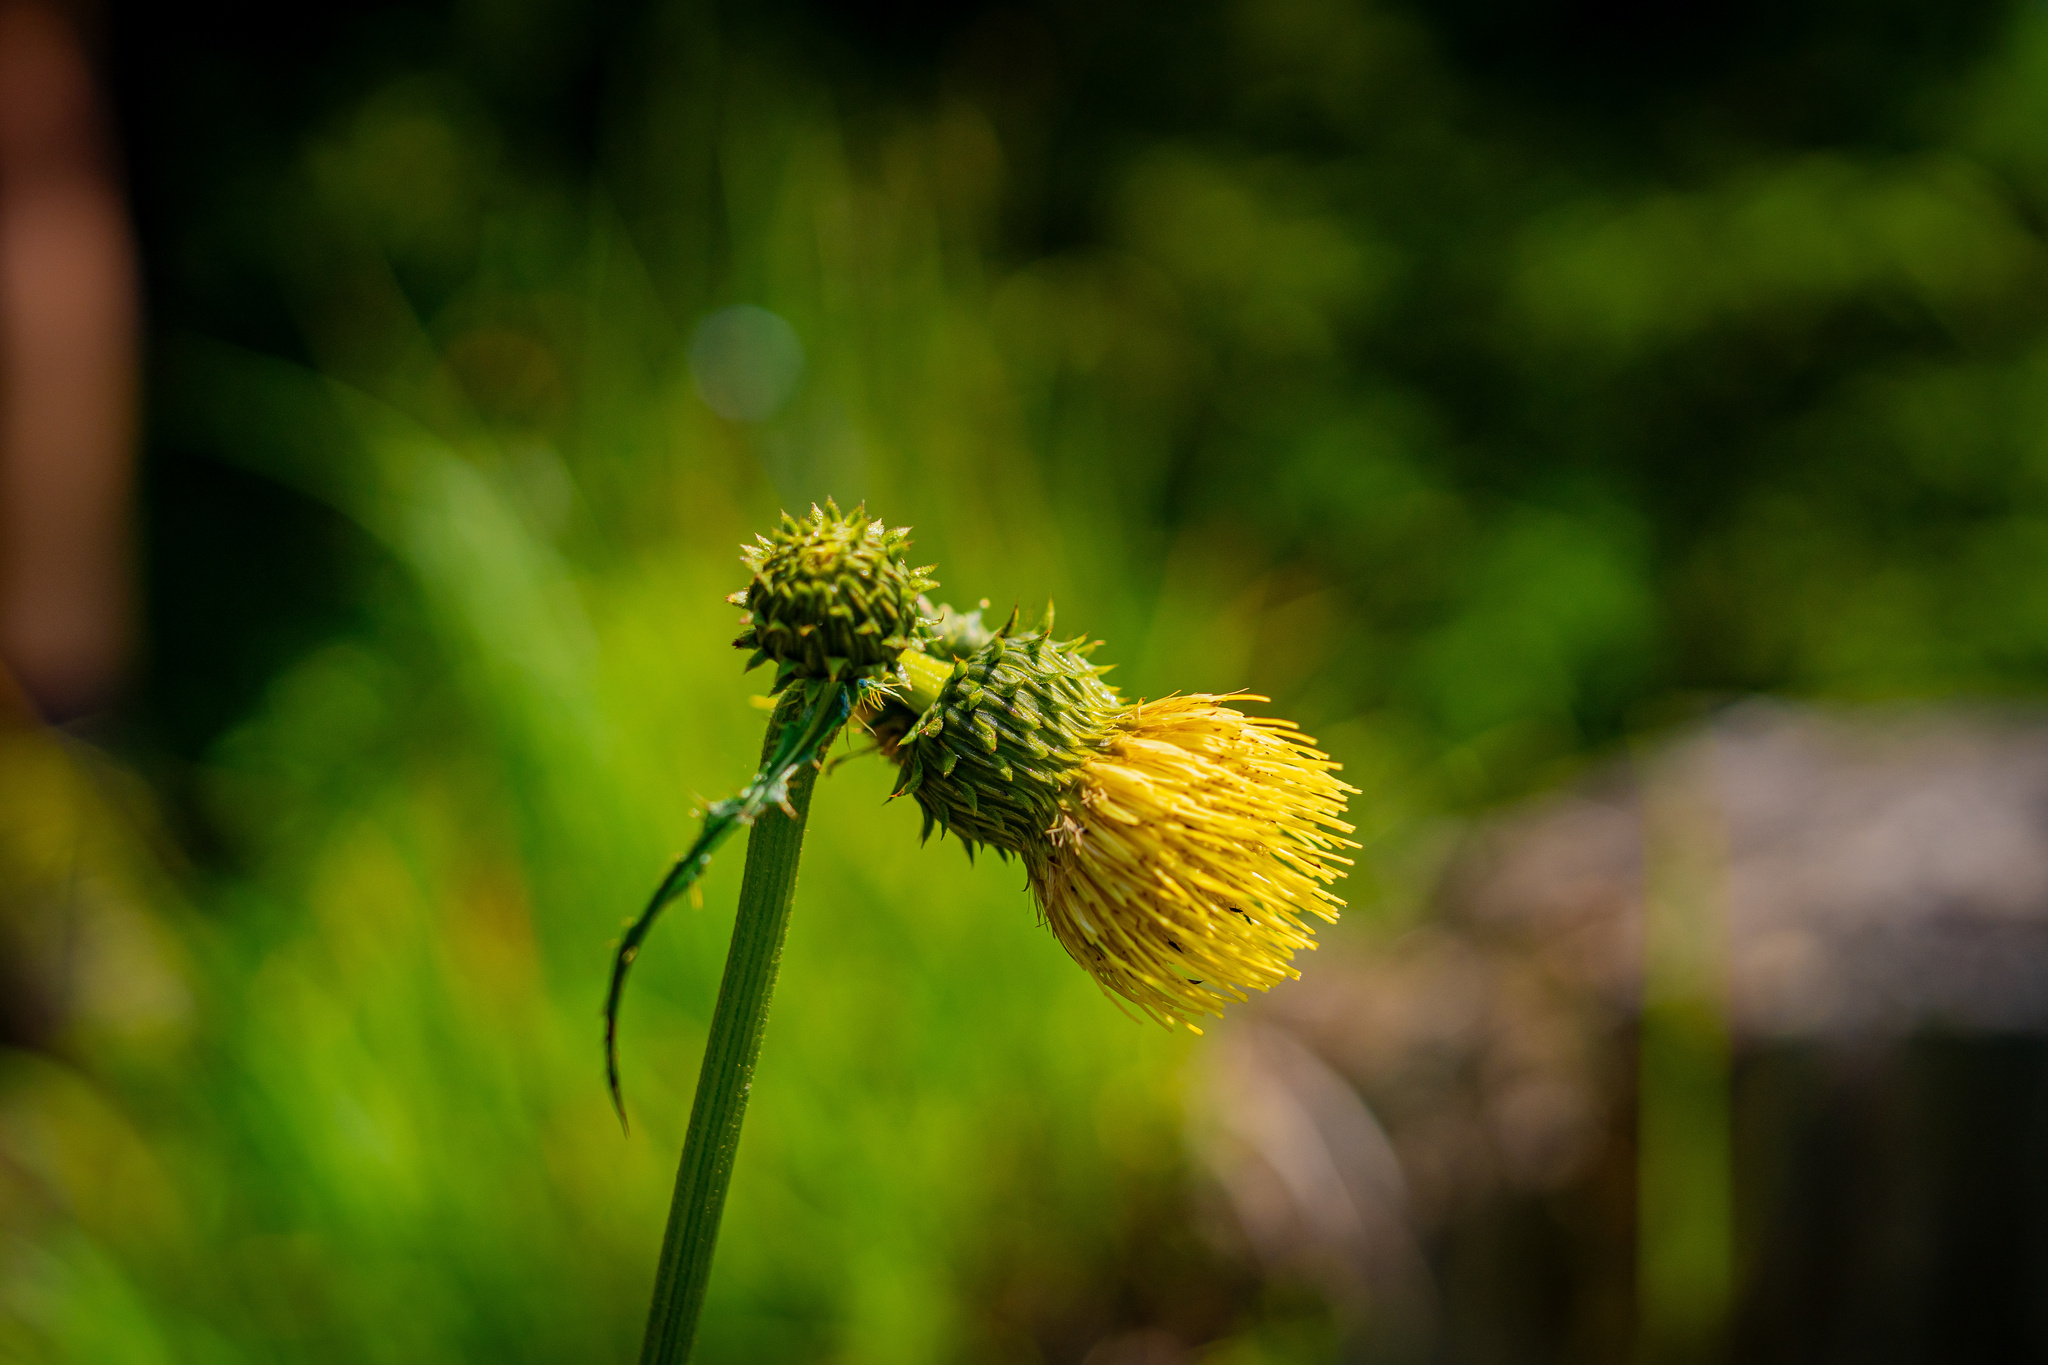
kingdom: Plantae
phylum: Tracheophyta
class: Magnoliopsida
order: Asterales
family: Asteraceae
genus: Cirsium
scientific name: Cirsium erisithales
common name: Yellow thistle
